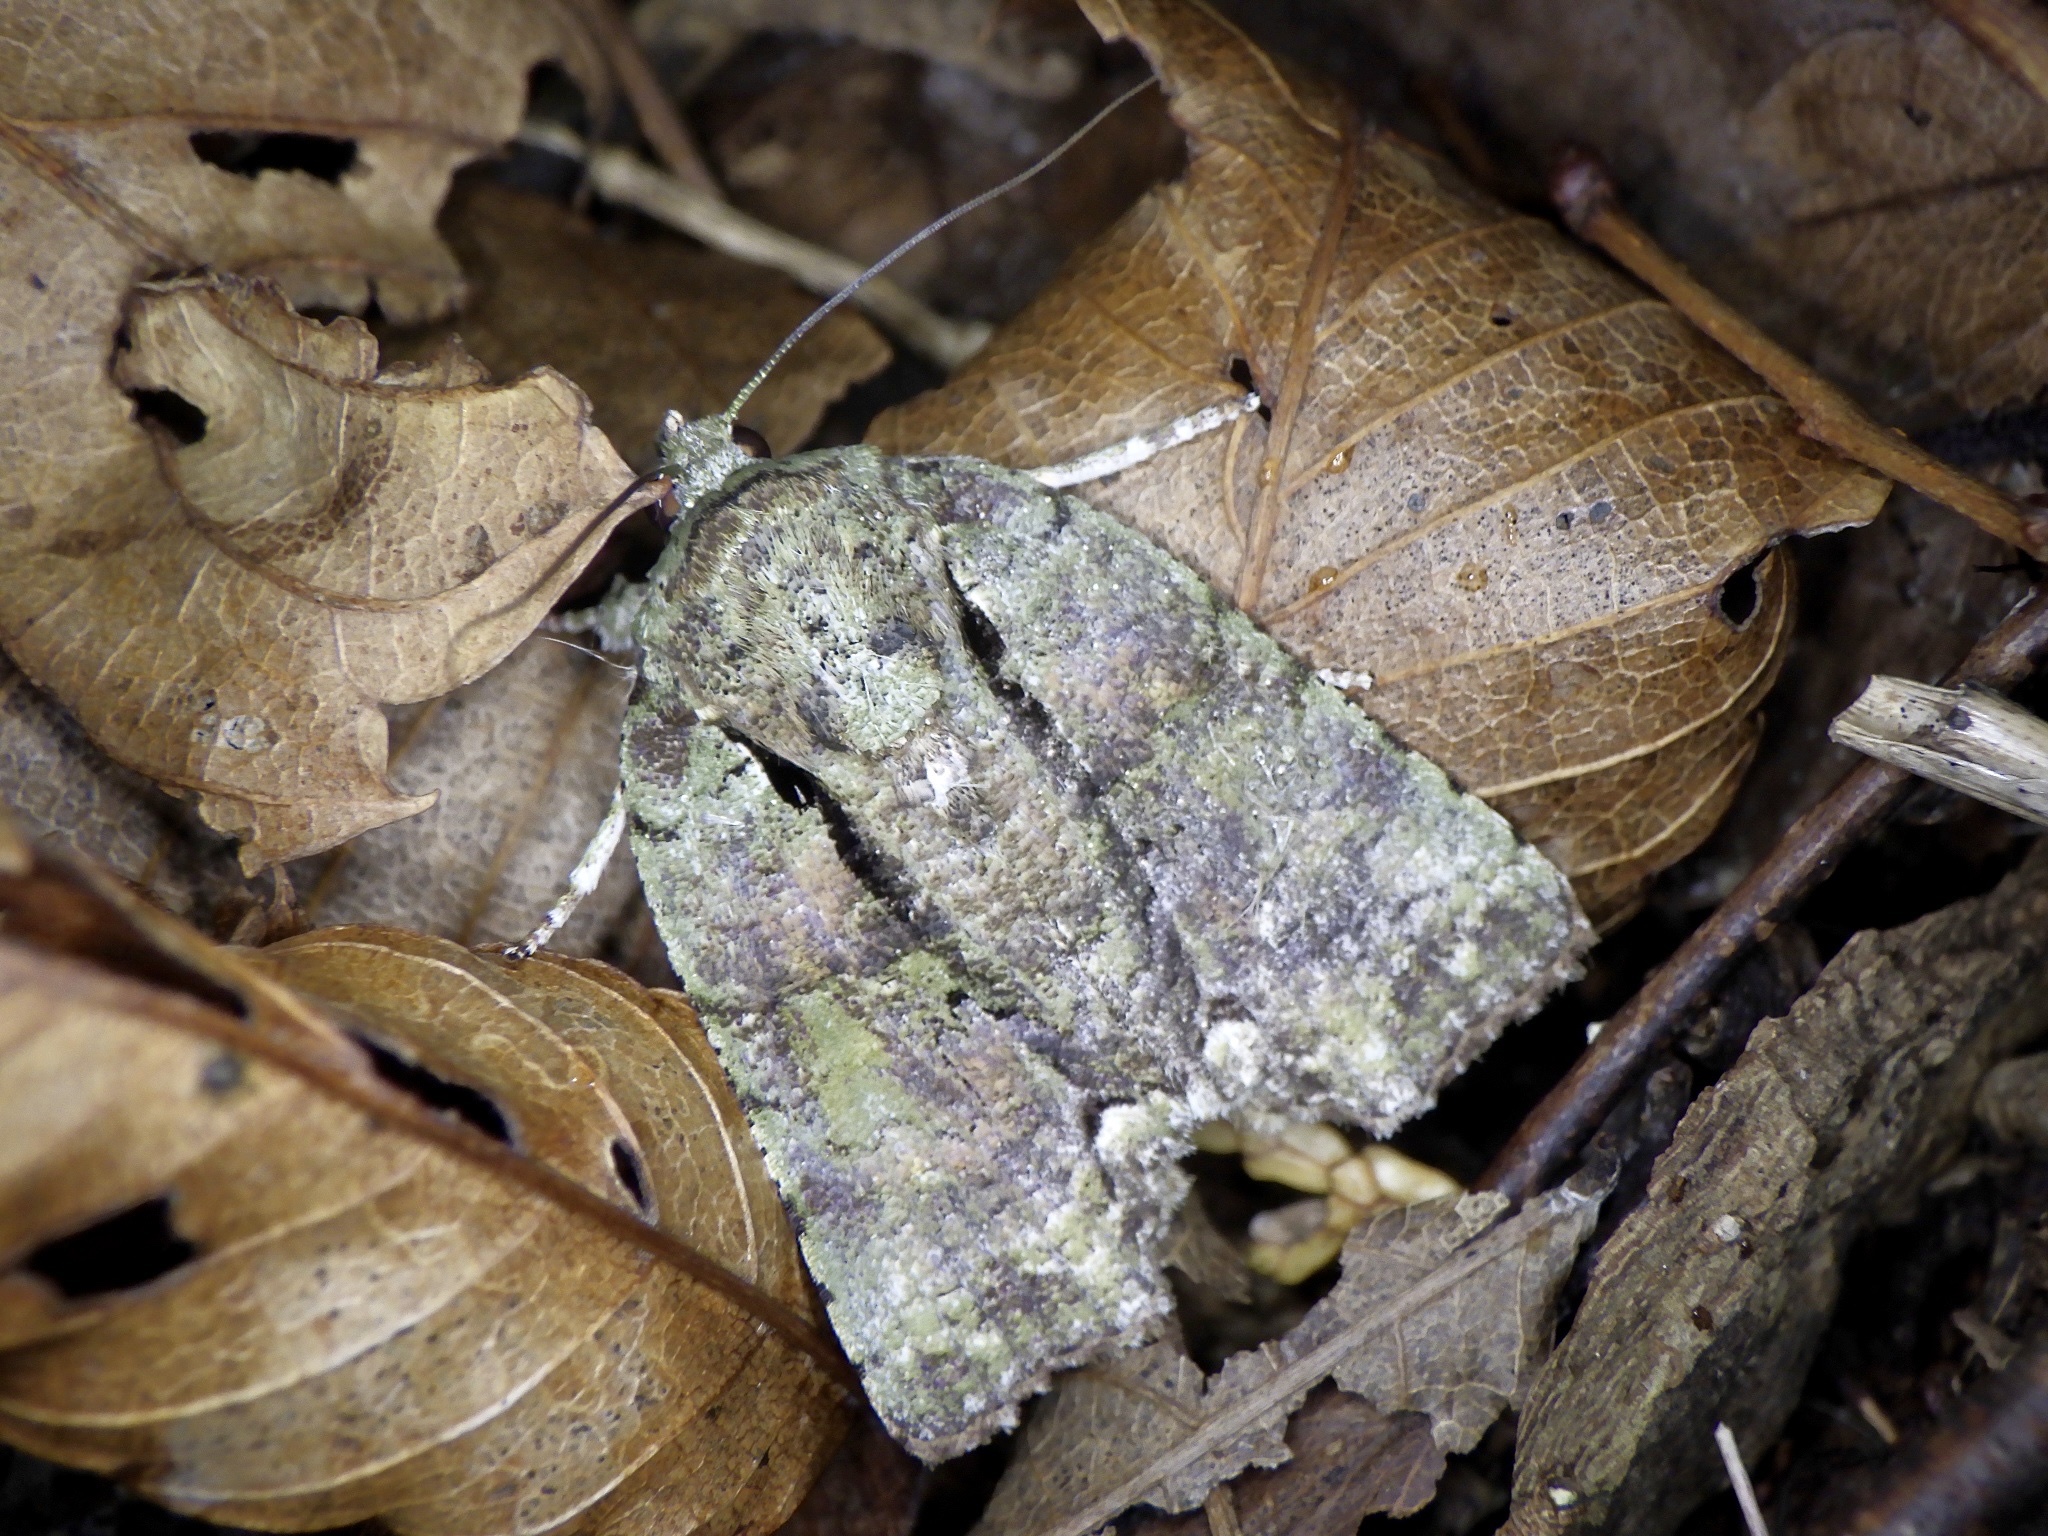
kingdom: Animalia
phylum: Arthropoda
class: Insecta
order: Lepidoptera
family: Nolidae
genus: Blenina
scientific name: Blenina senex
